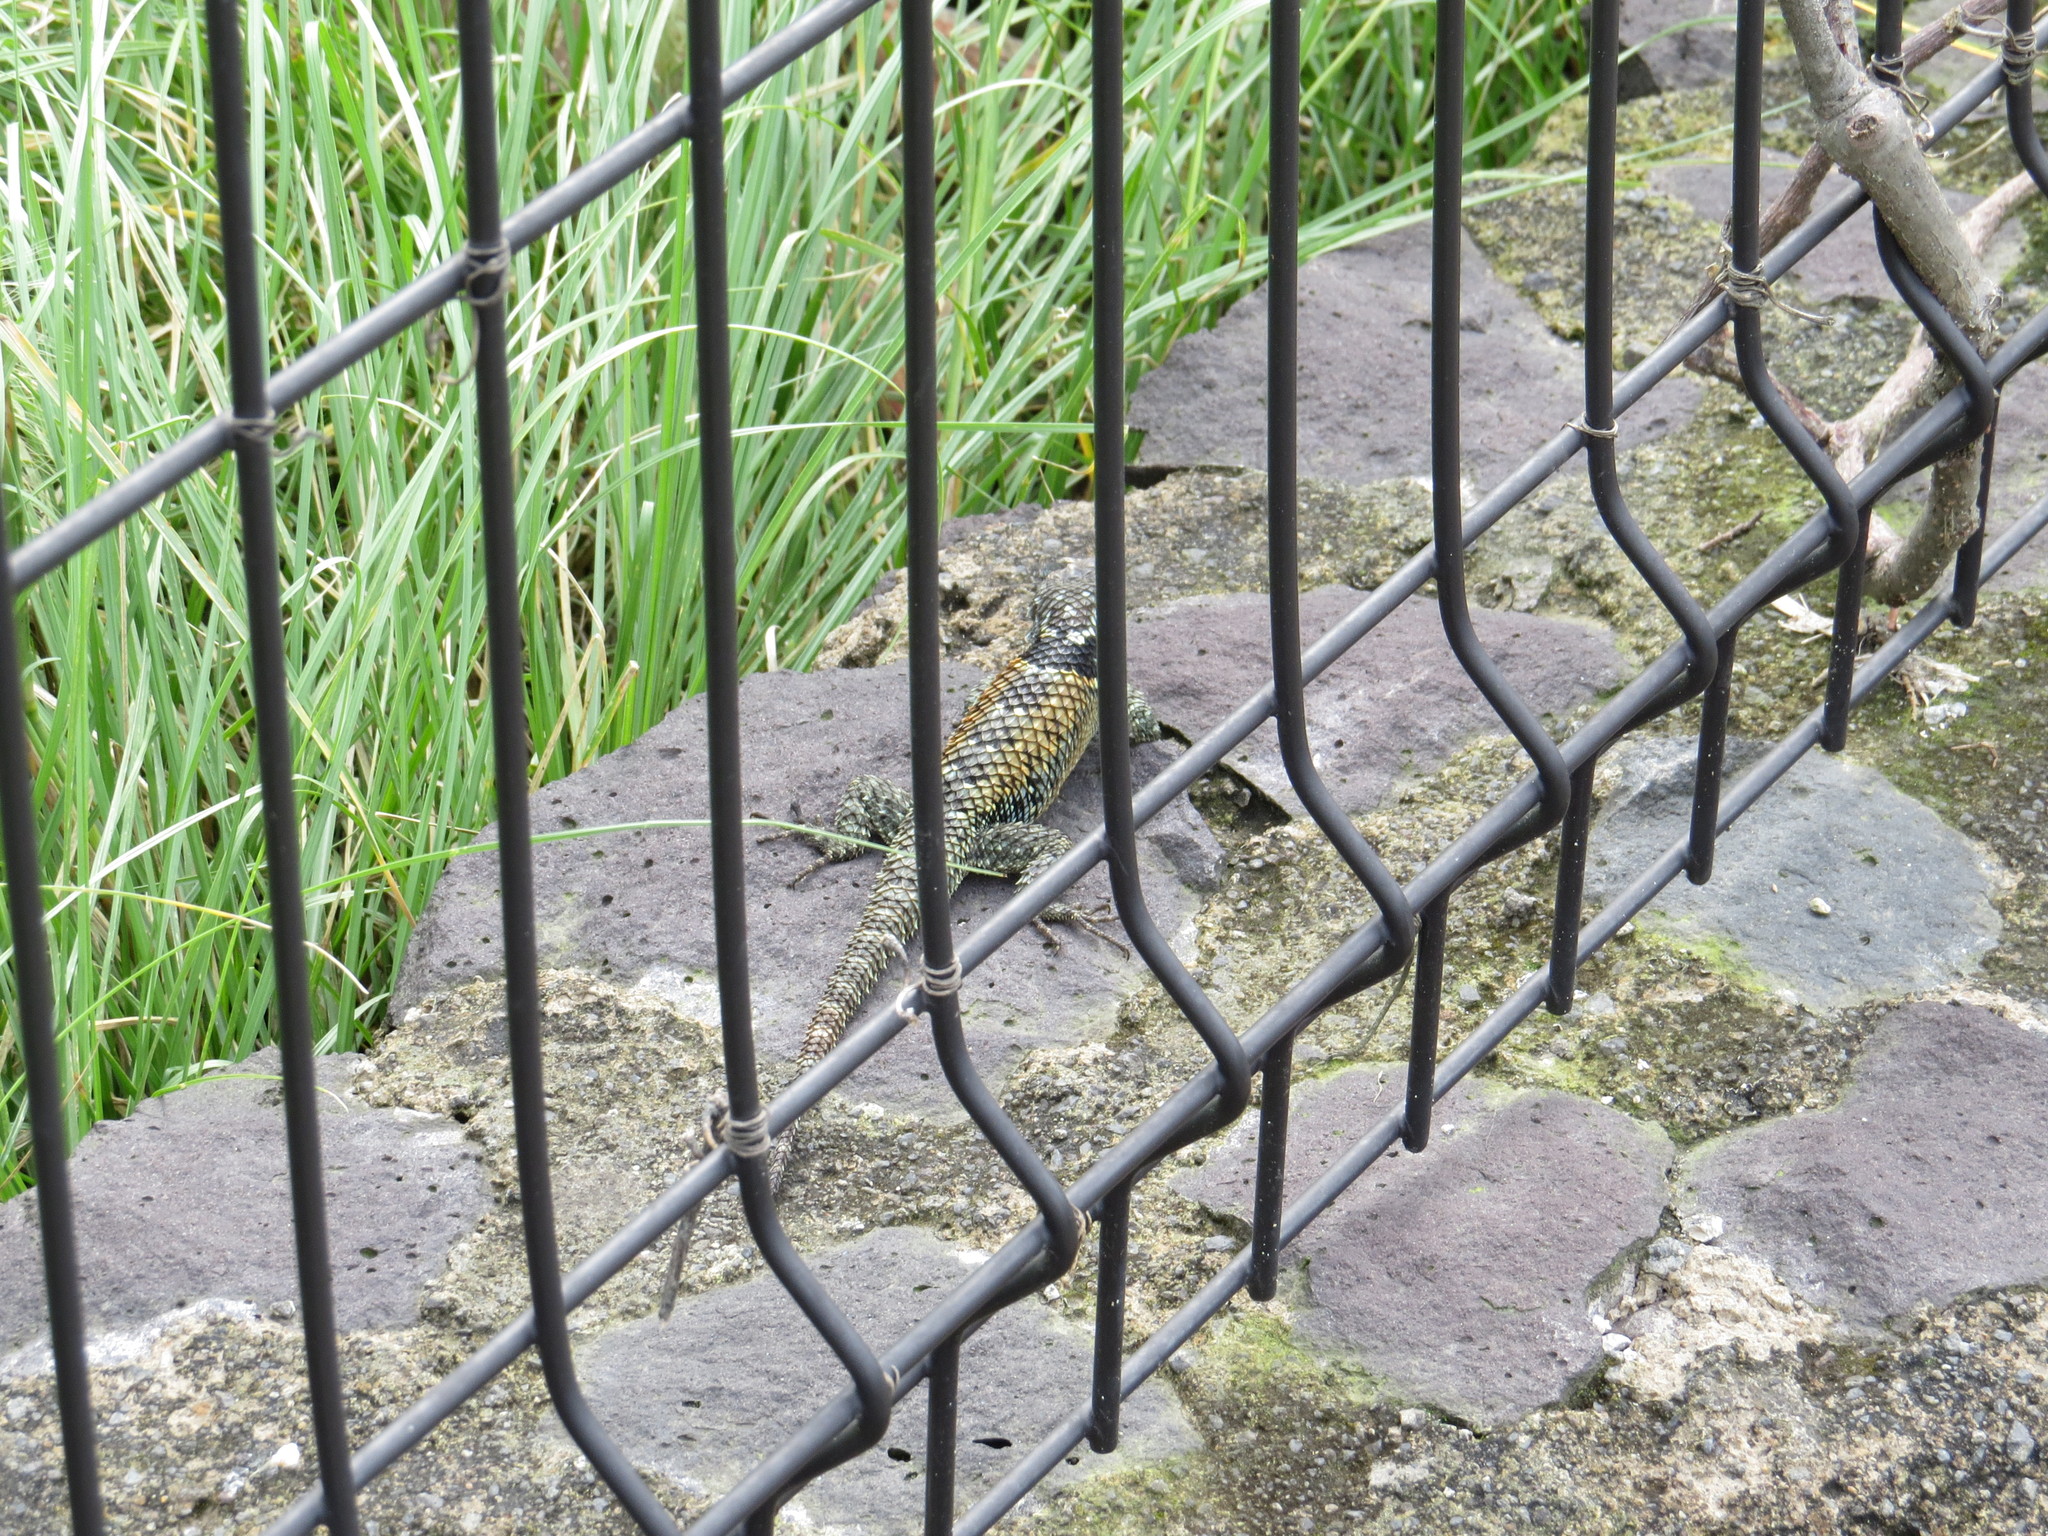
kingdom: Animalia
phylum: Chordata
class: Squamata
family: Phrynosomatidae
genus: Sceloporus
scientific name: Sceloporus torquatus
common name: Central plateau torquate lizard [melanogaster]
